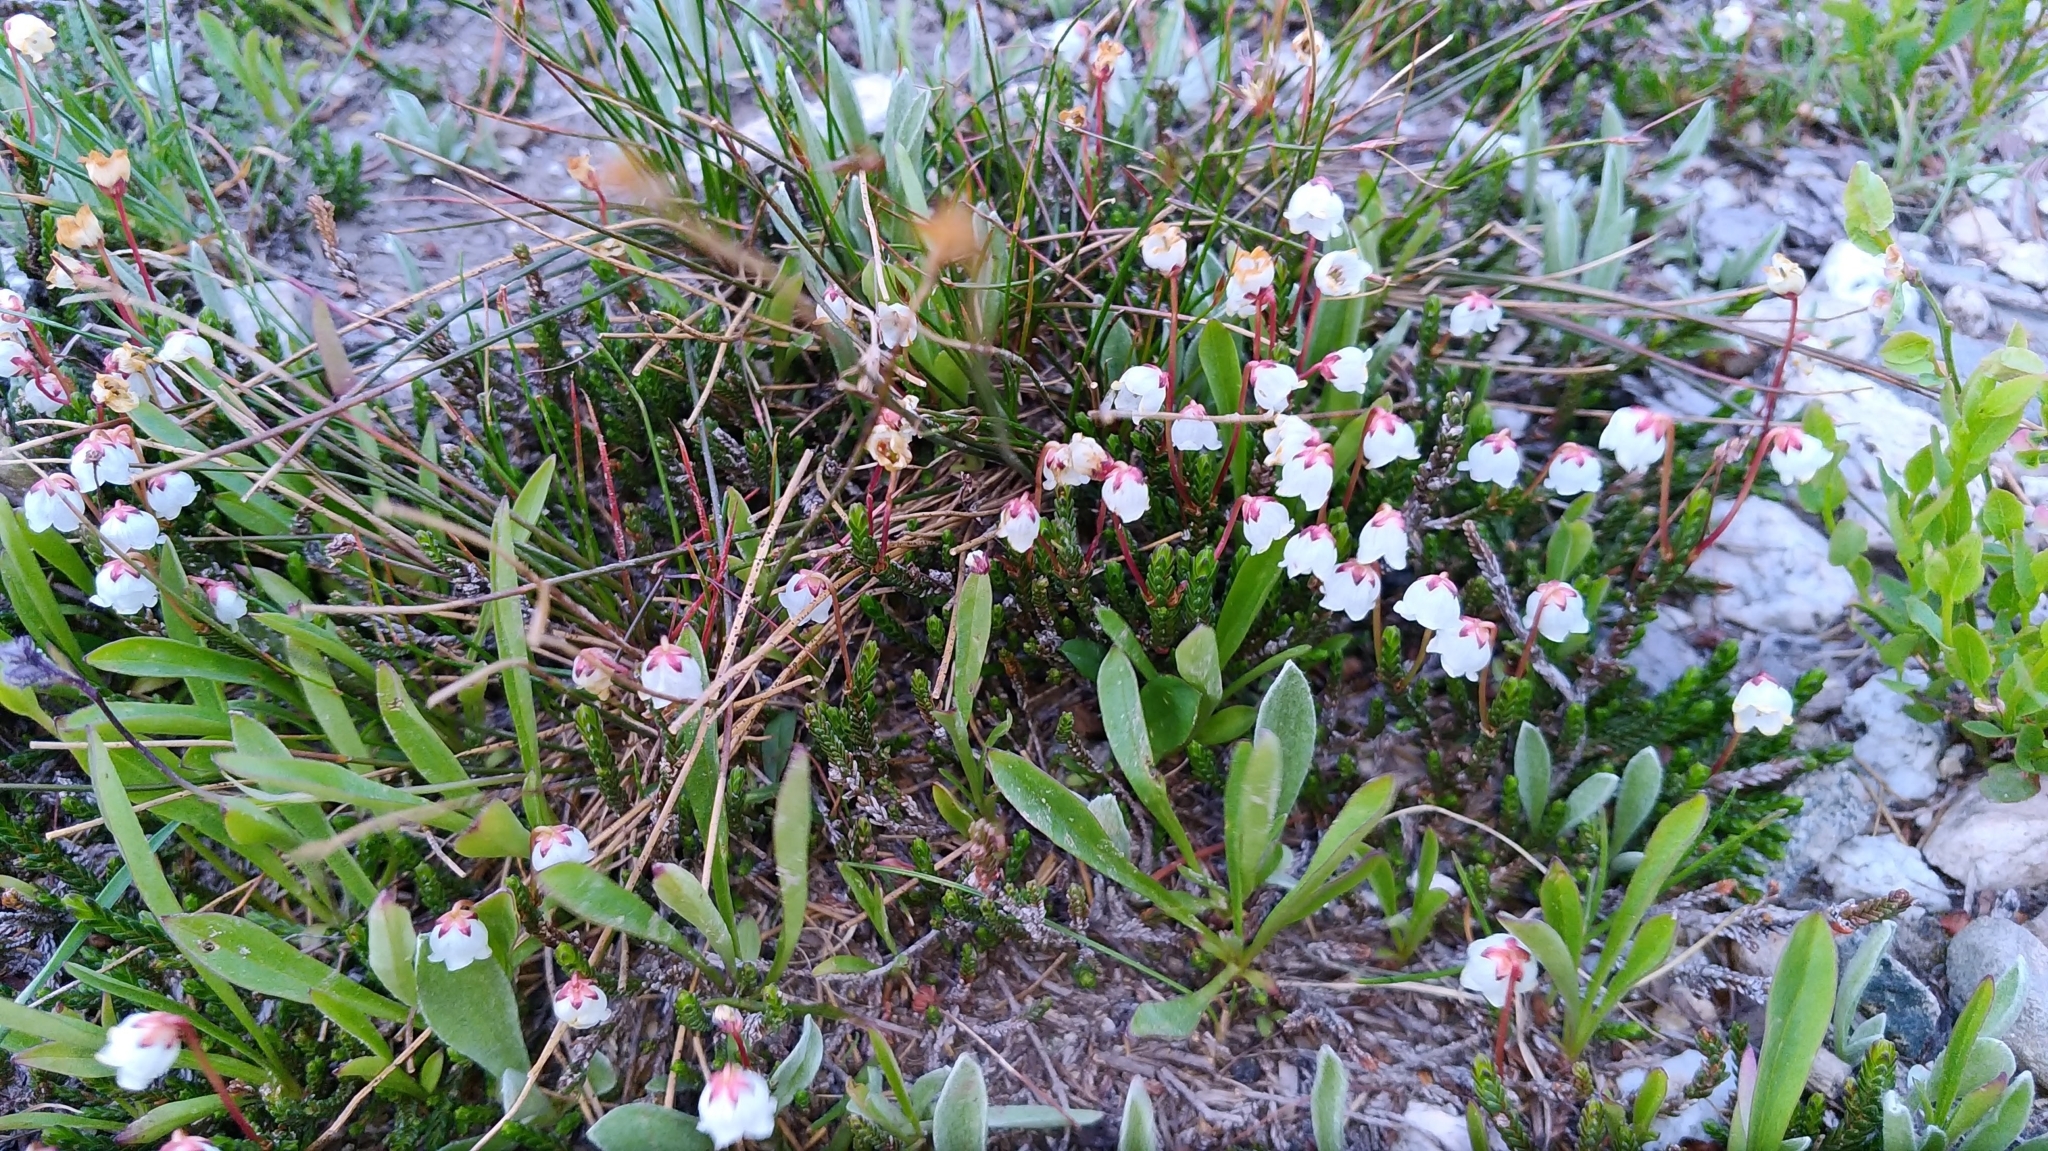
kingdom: Plantae
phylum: Tracheophyta
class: Magnoliopsida
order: Ericales
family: Ericaceae
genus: Cassiope
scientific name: Cassiope mertensiana
